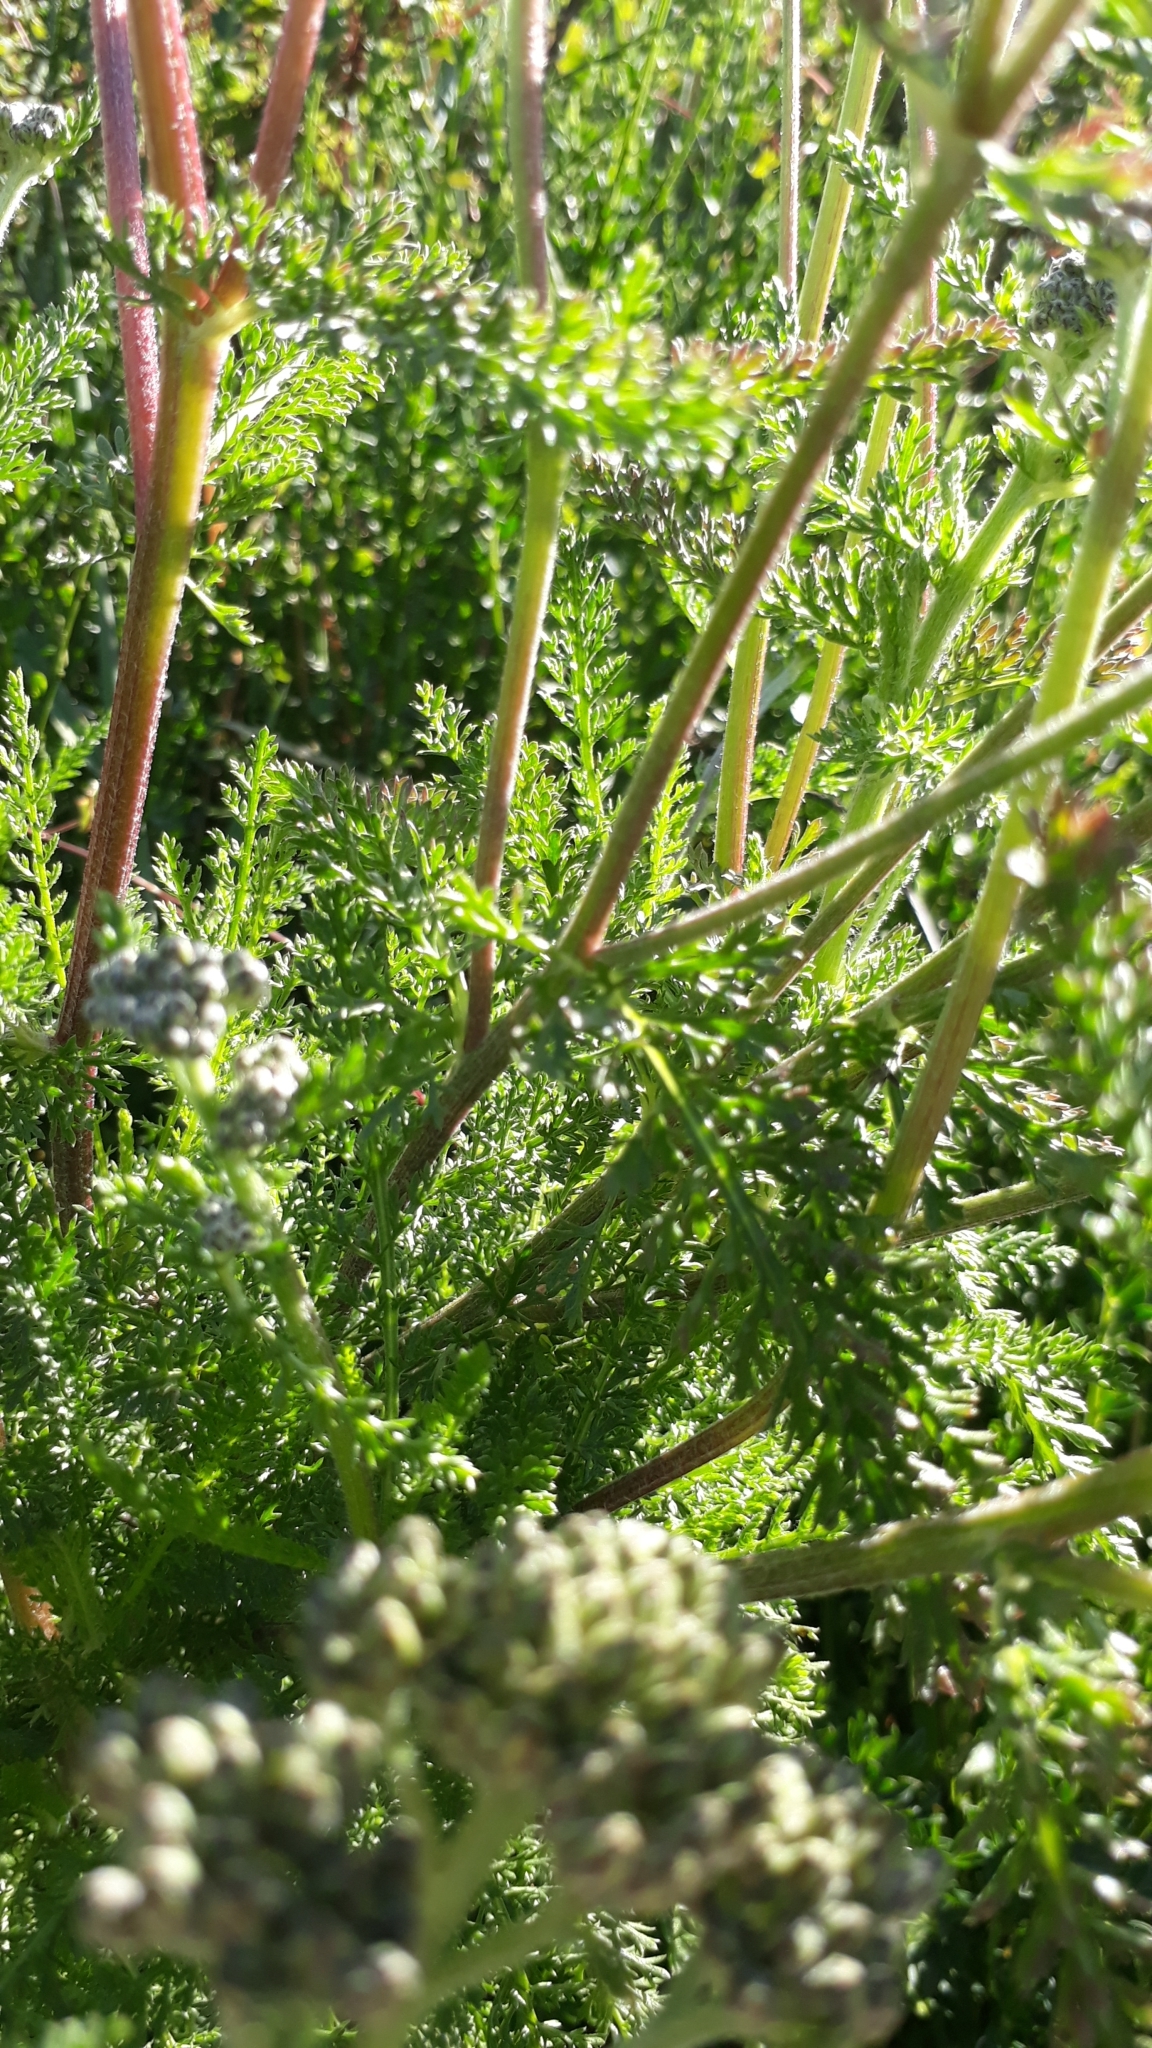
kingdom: Plantae
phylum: Tracheophyta
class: Magnoliopsida
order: Asterales
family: Asteraceae
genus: Achillea
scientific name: Achillea millefolium
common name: Yarrow
